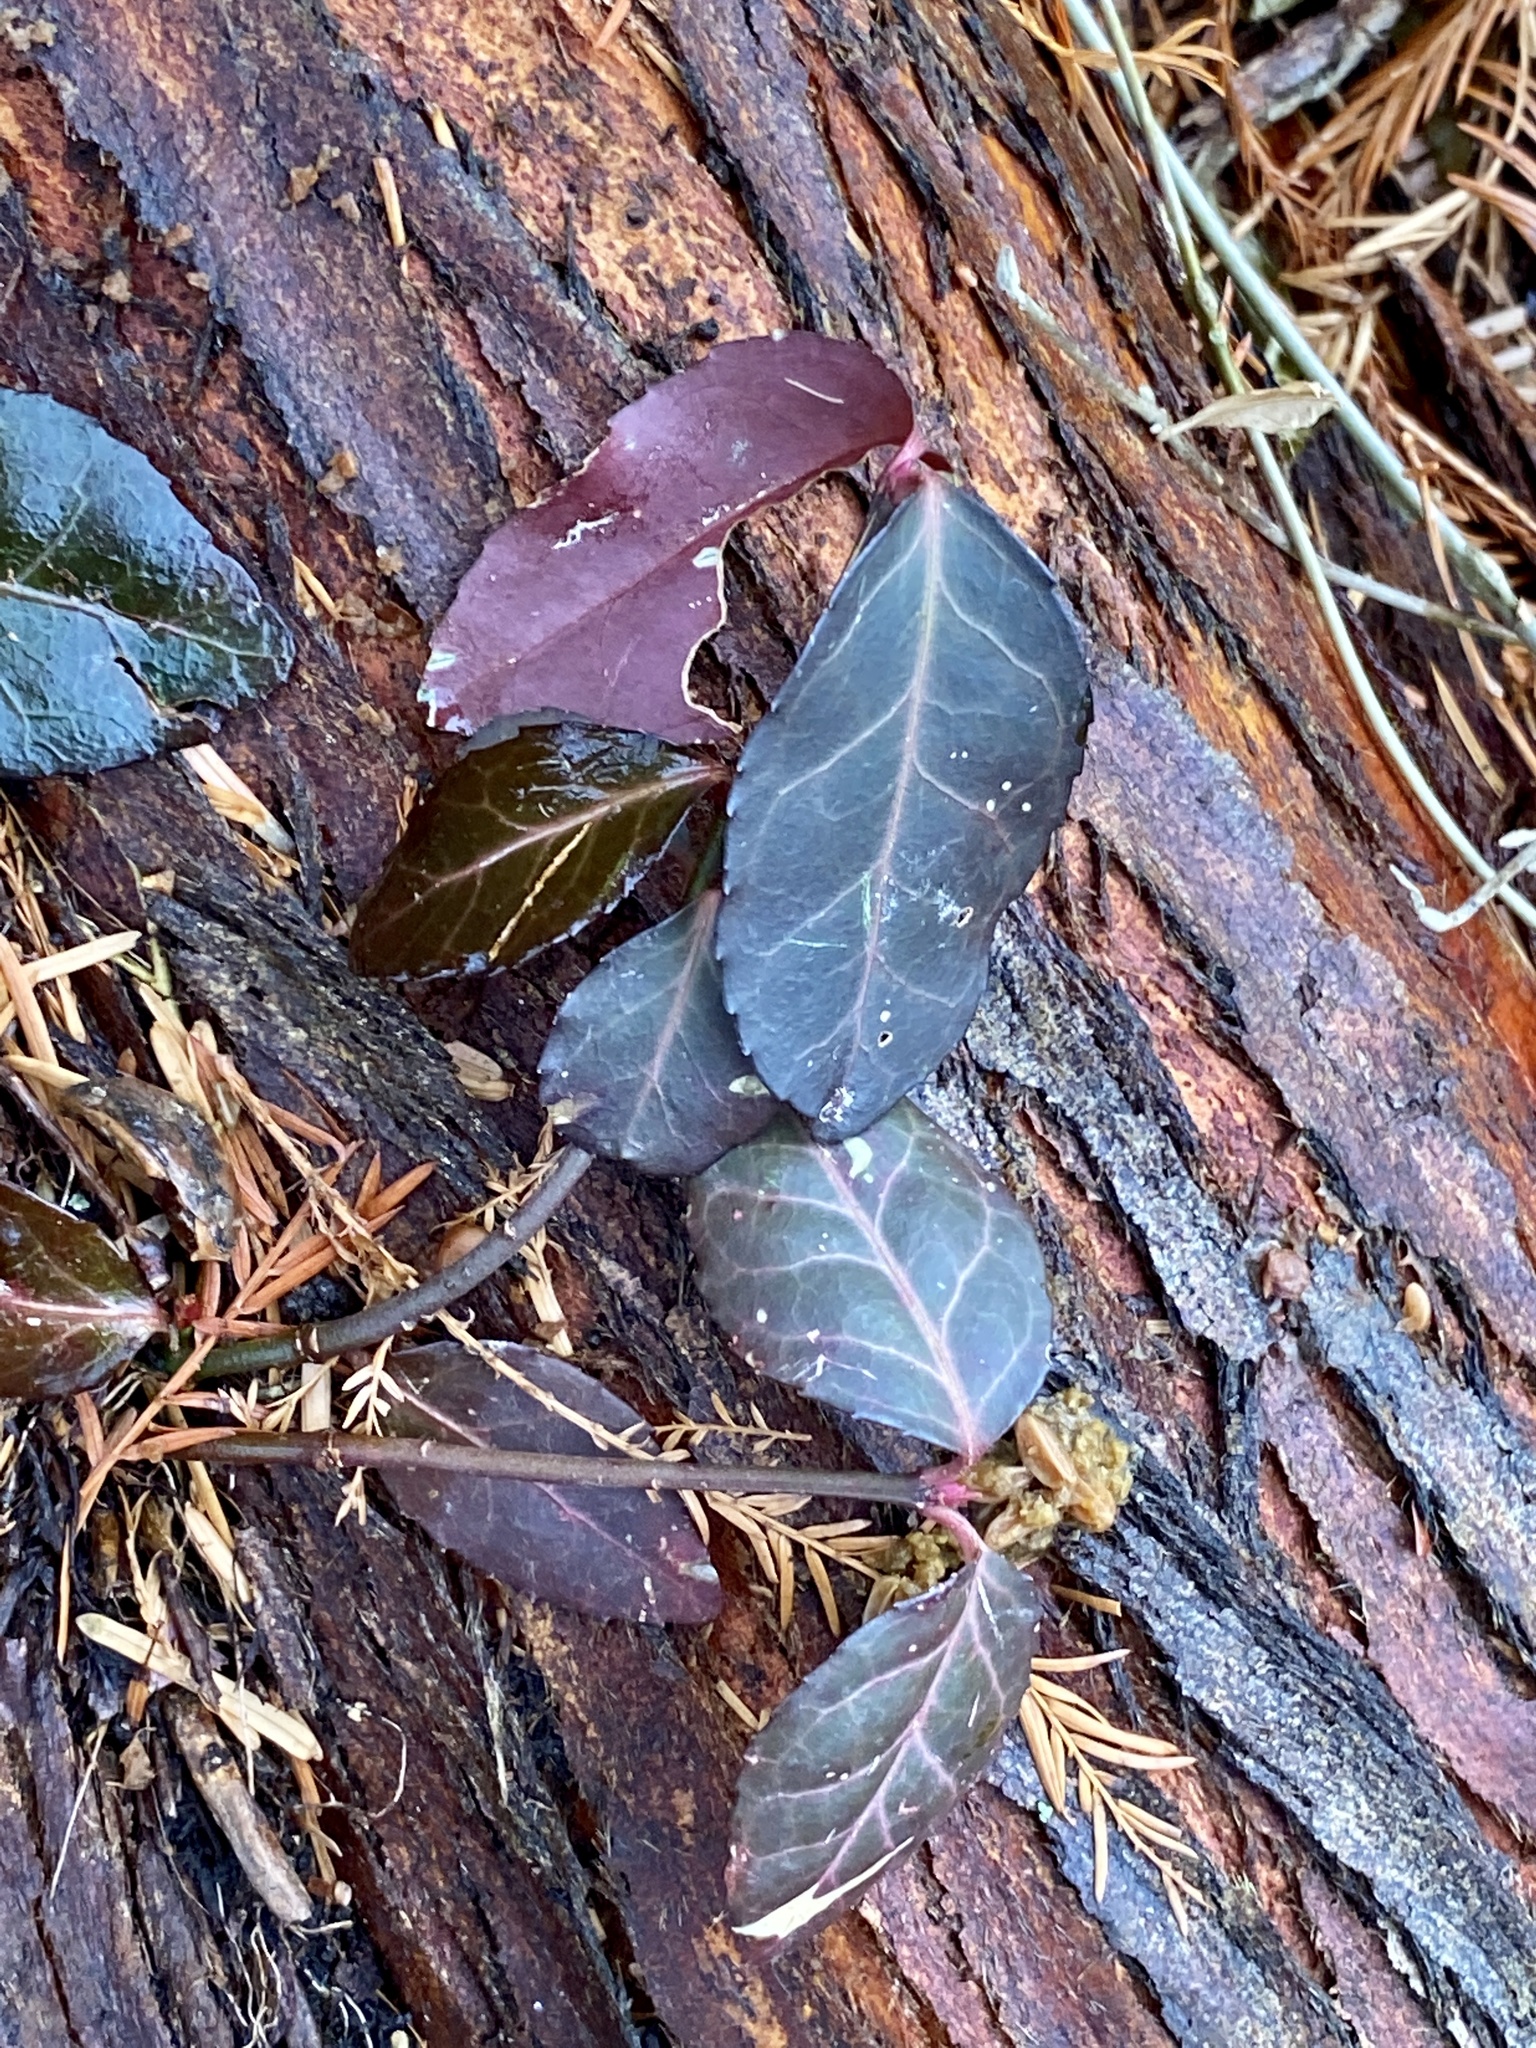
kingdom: Plantae
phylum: Tracheophyta
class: Magnoliopsida
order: Celastrales
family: Celastraceae
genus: Euonymus
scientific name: Euonymus fortunei
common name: Climbing euonymus
